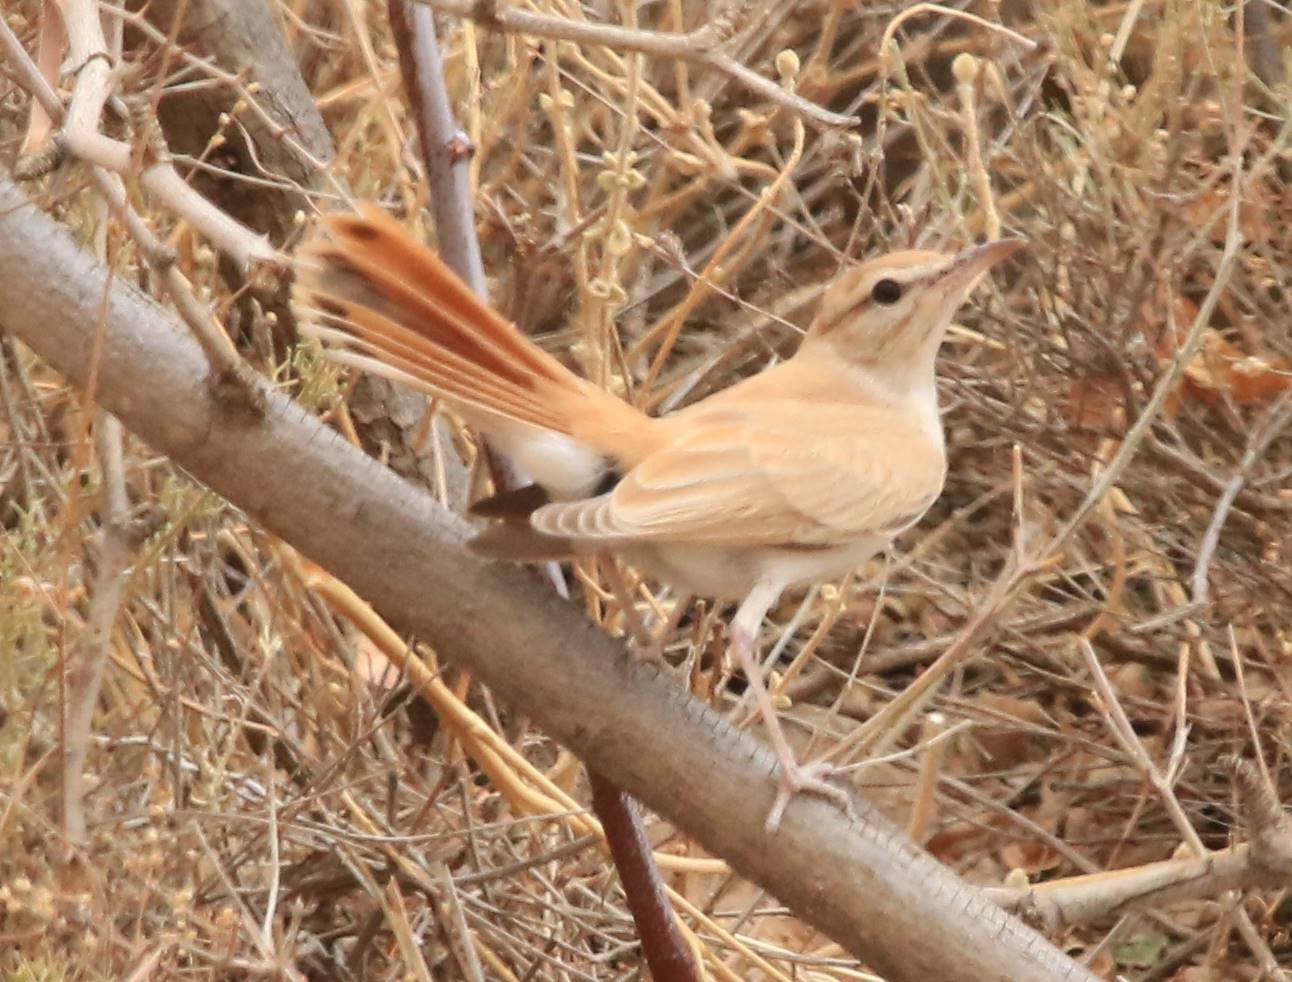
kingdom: Animalia
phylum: Chordata
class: Aves
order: Passeriformes
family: Muscicapidae
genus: Erythropygia
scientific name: Erythropygia galactotes
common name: Rufous-tailed scrub robin
